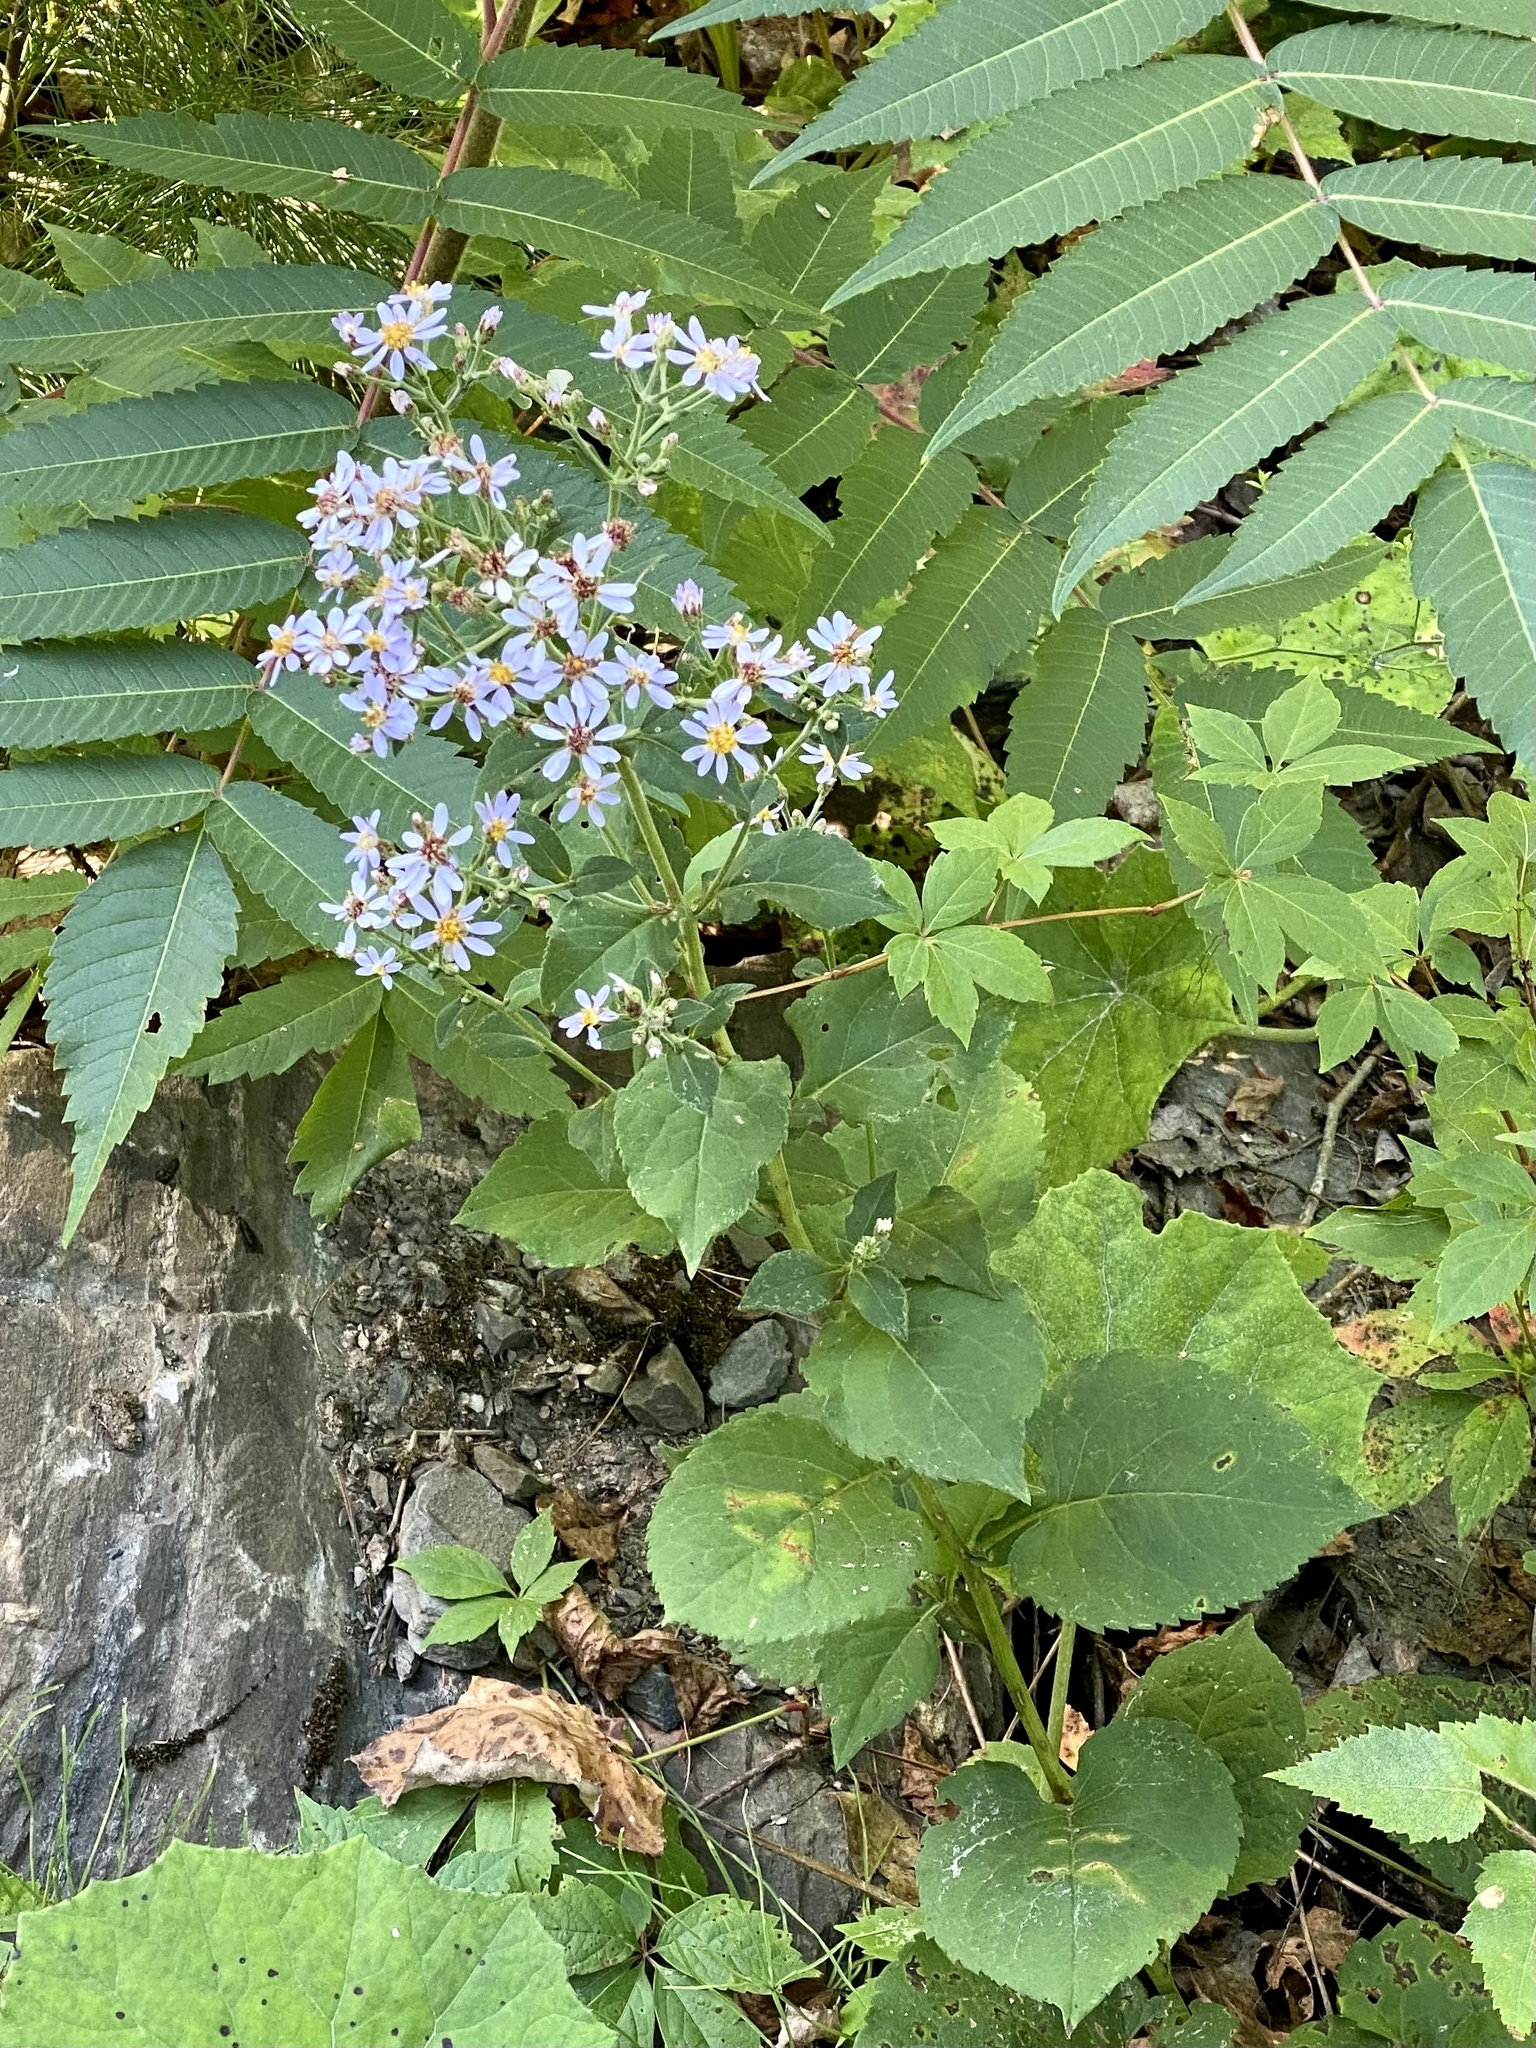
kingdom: Plantae
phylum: Tracheophyta
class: Magnoliopsida
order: Asterales
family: Asteraceae
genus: Symphyotrichum
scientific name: Symphyotrichum cordifolium
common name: Beeweed
